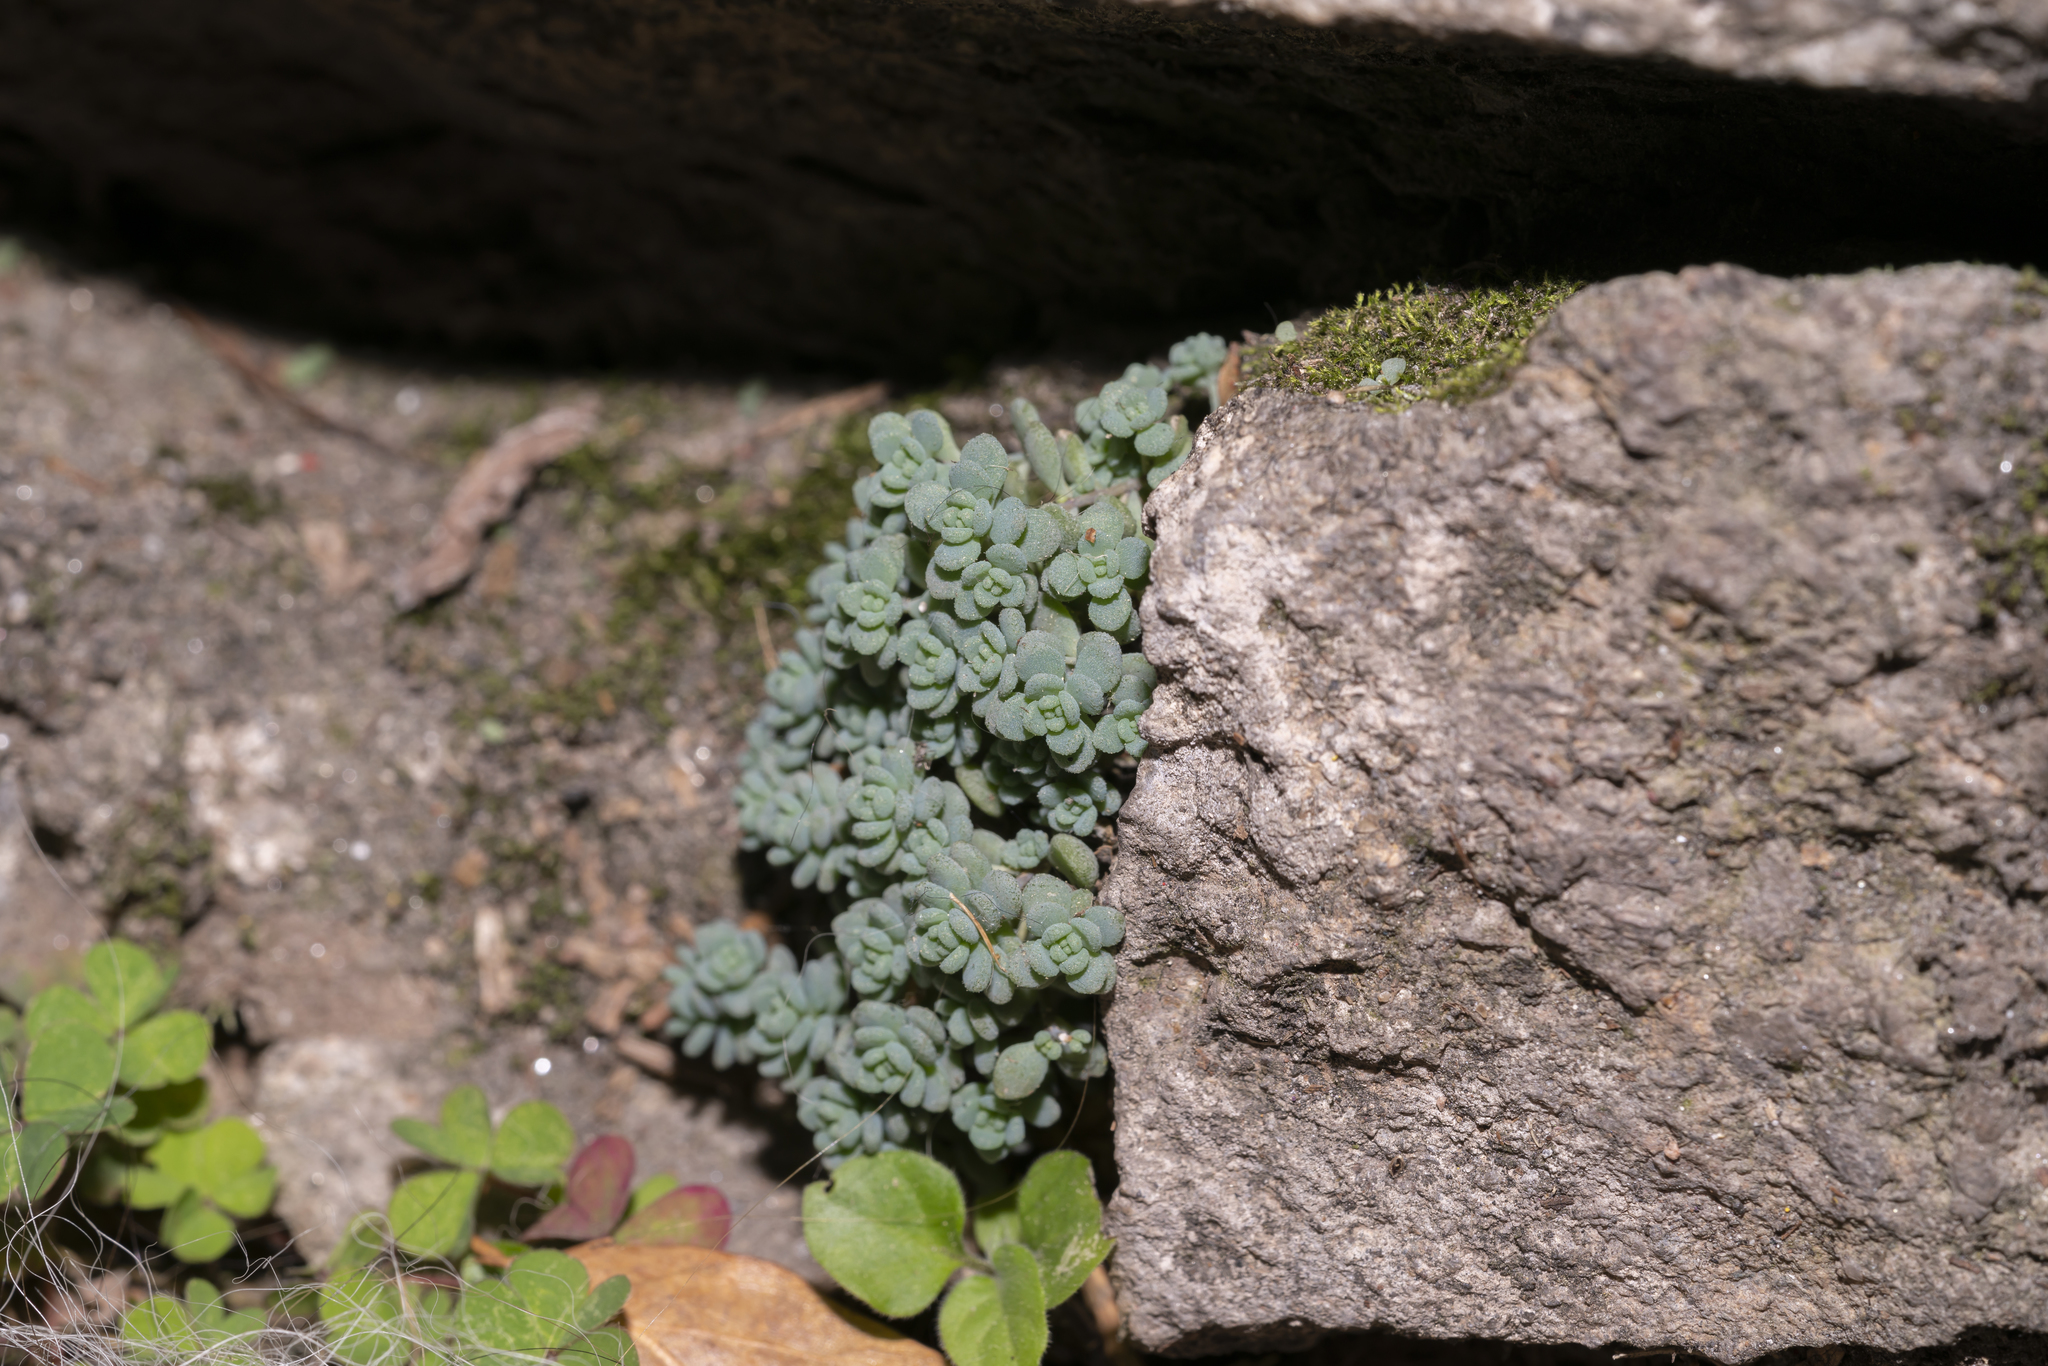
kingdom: Plantae
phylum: Tracheophyta
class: Magnoliopsida
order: Saxifragales
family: Crassulaceae
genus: Sedum
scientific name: Sedum dasyphyllum
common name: Thick-leaf stonecrop
